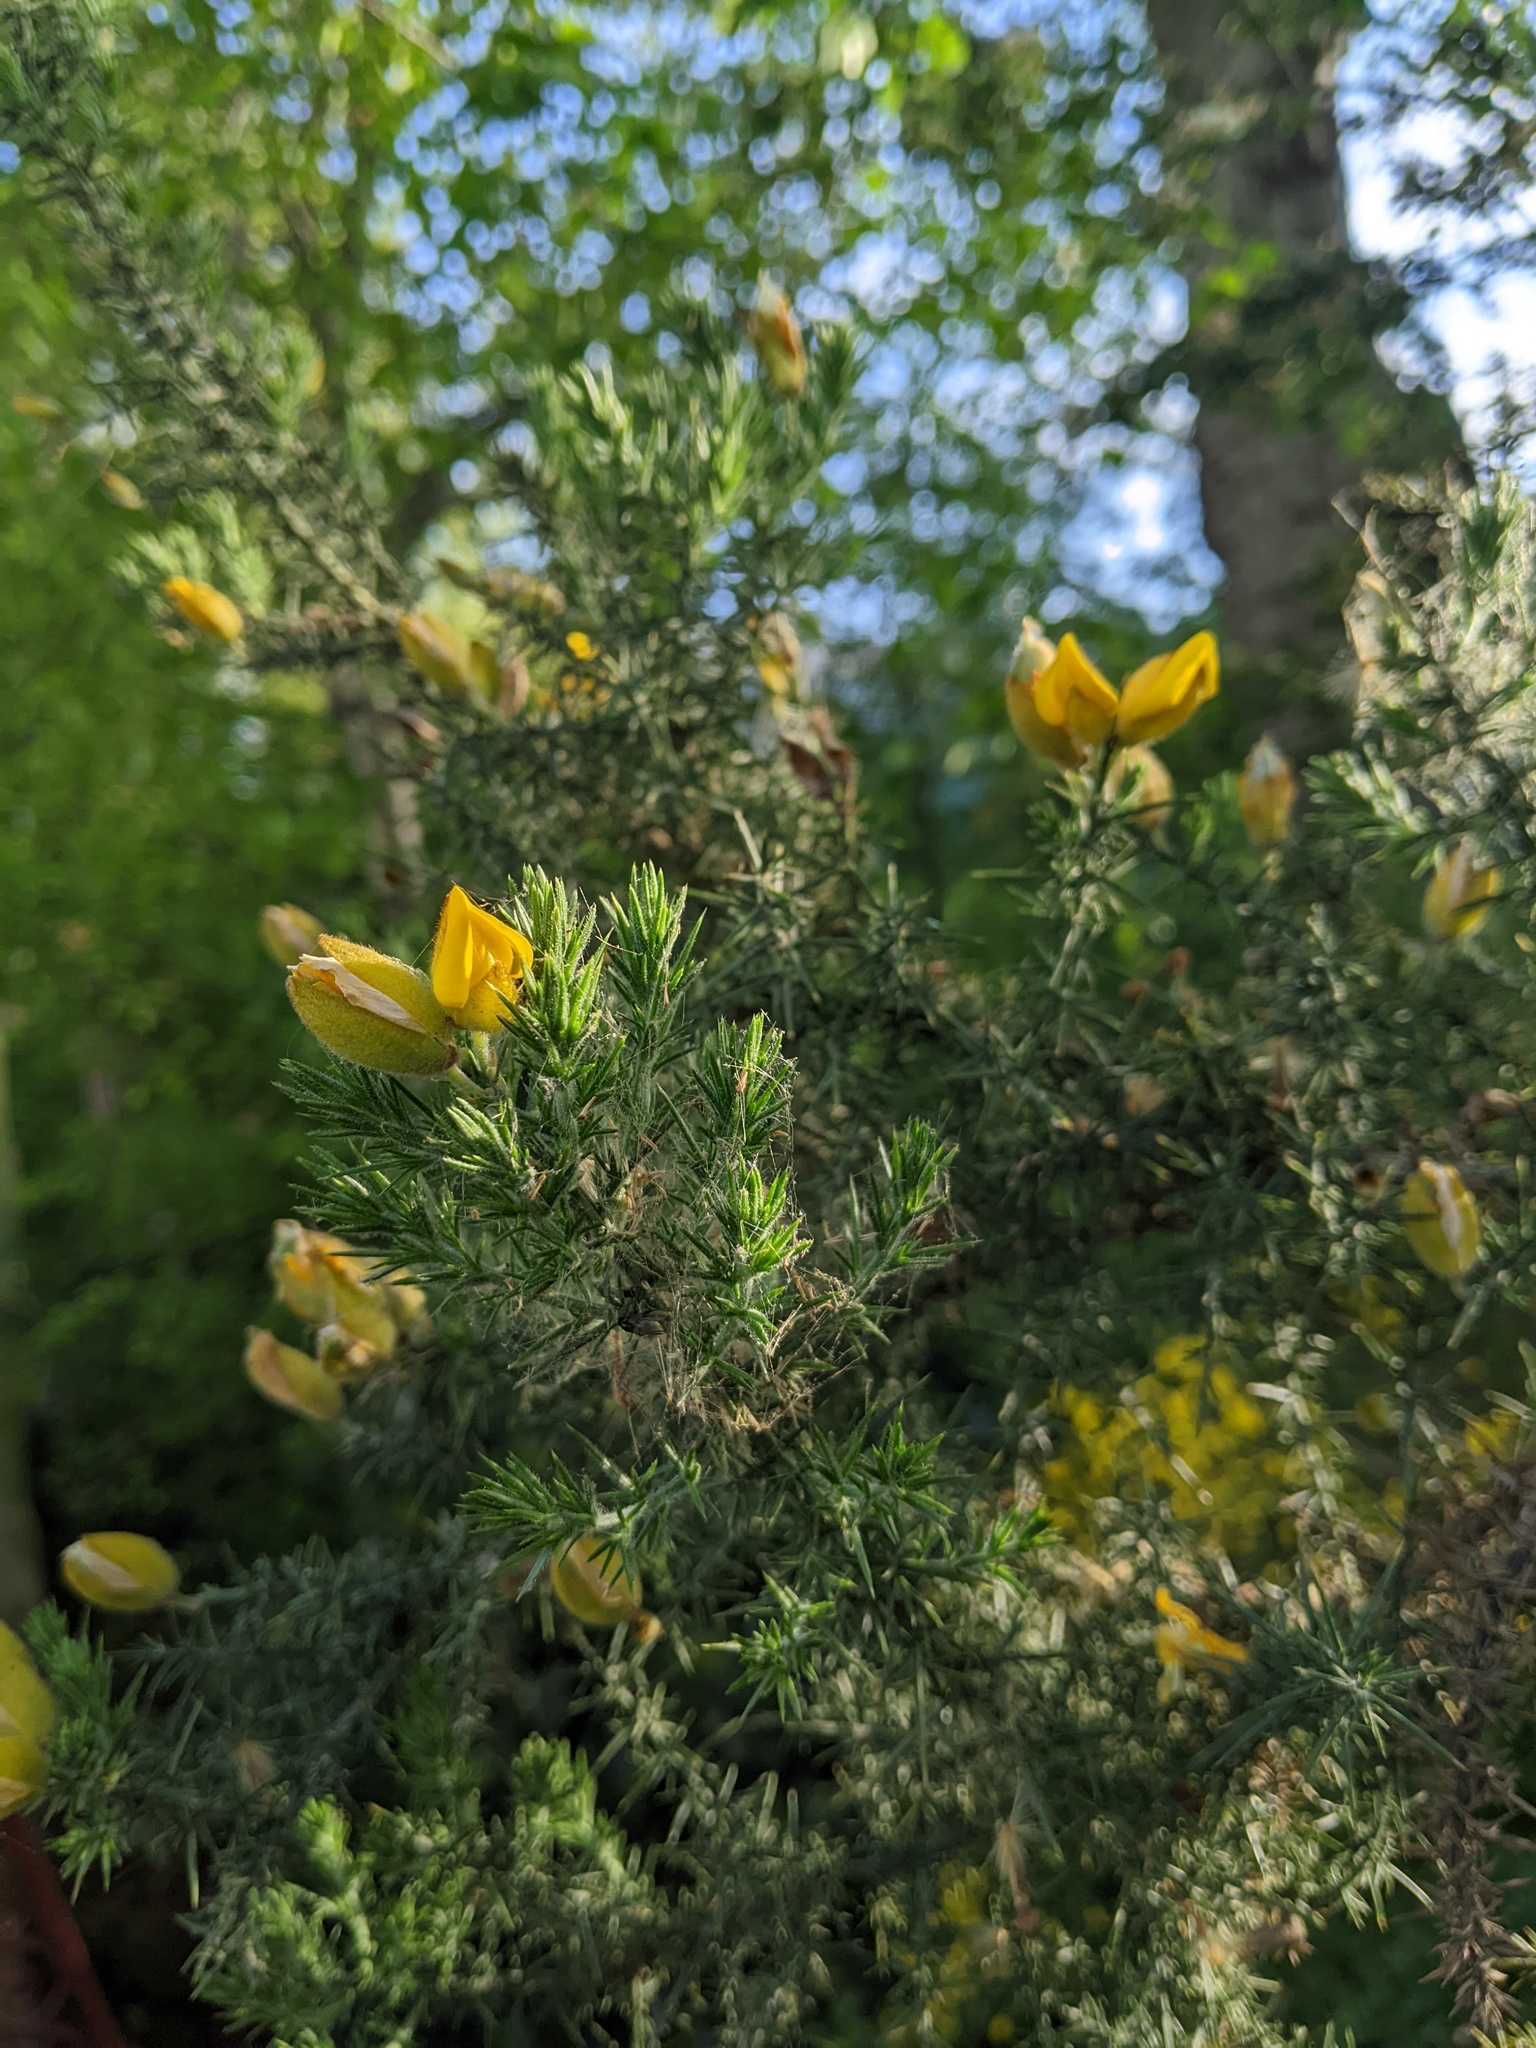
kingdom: Plantae
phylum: Tracheophyta
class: Magnoliopsida
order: Fabales
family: Fabaceae
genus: Ulex
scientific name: Ulex europaeus
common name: Common gorse
